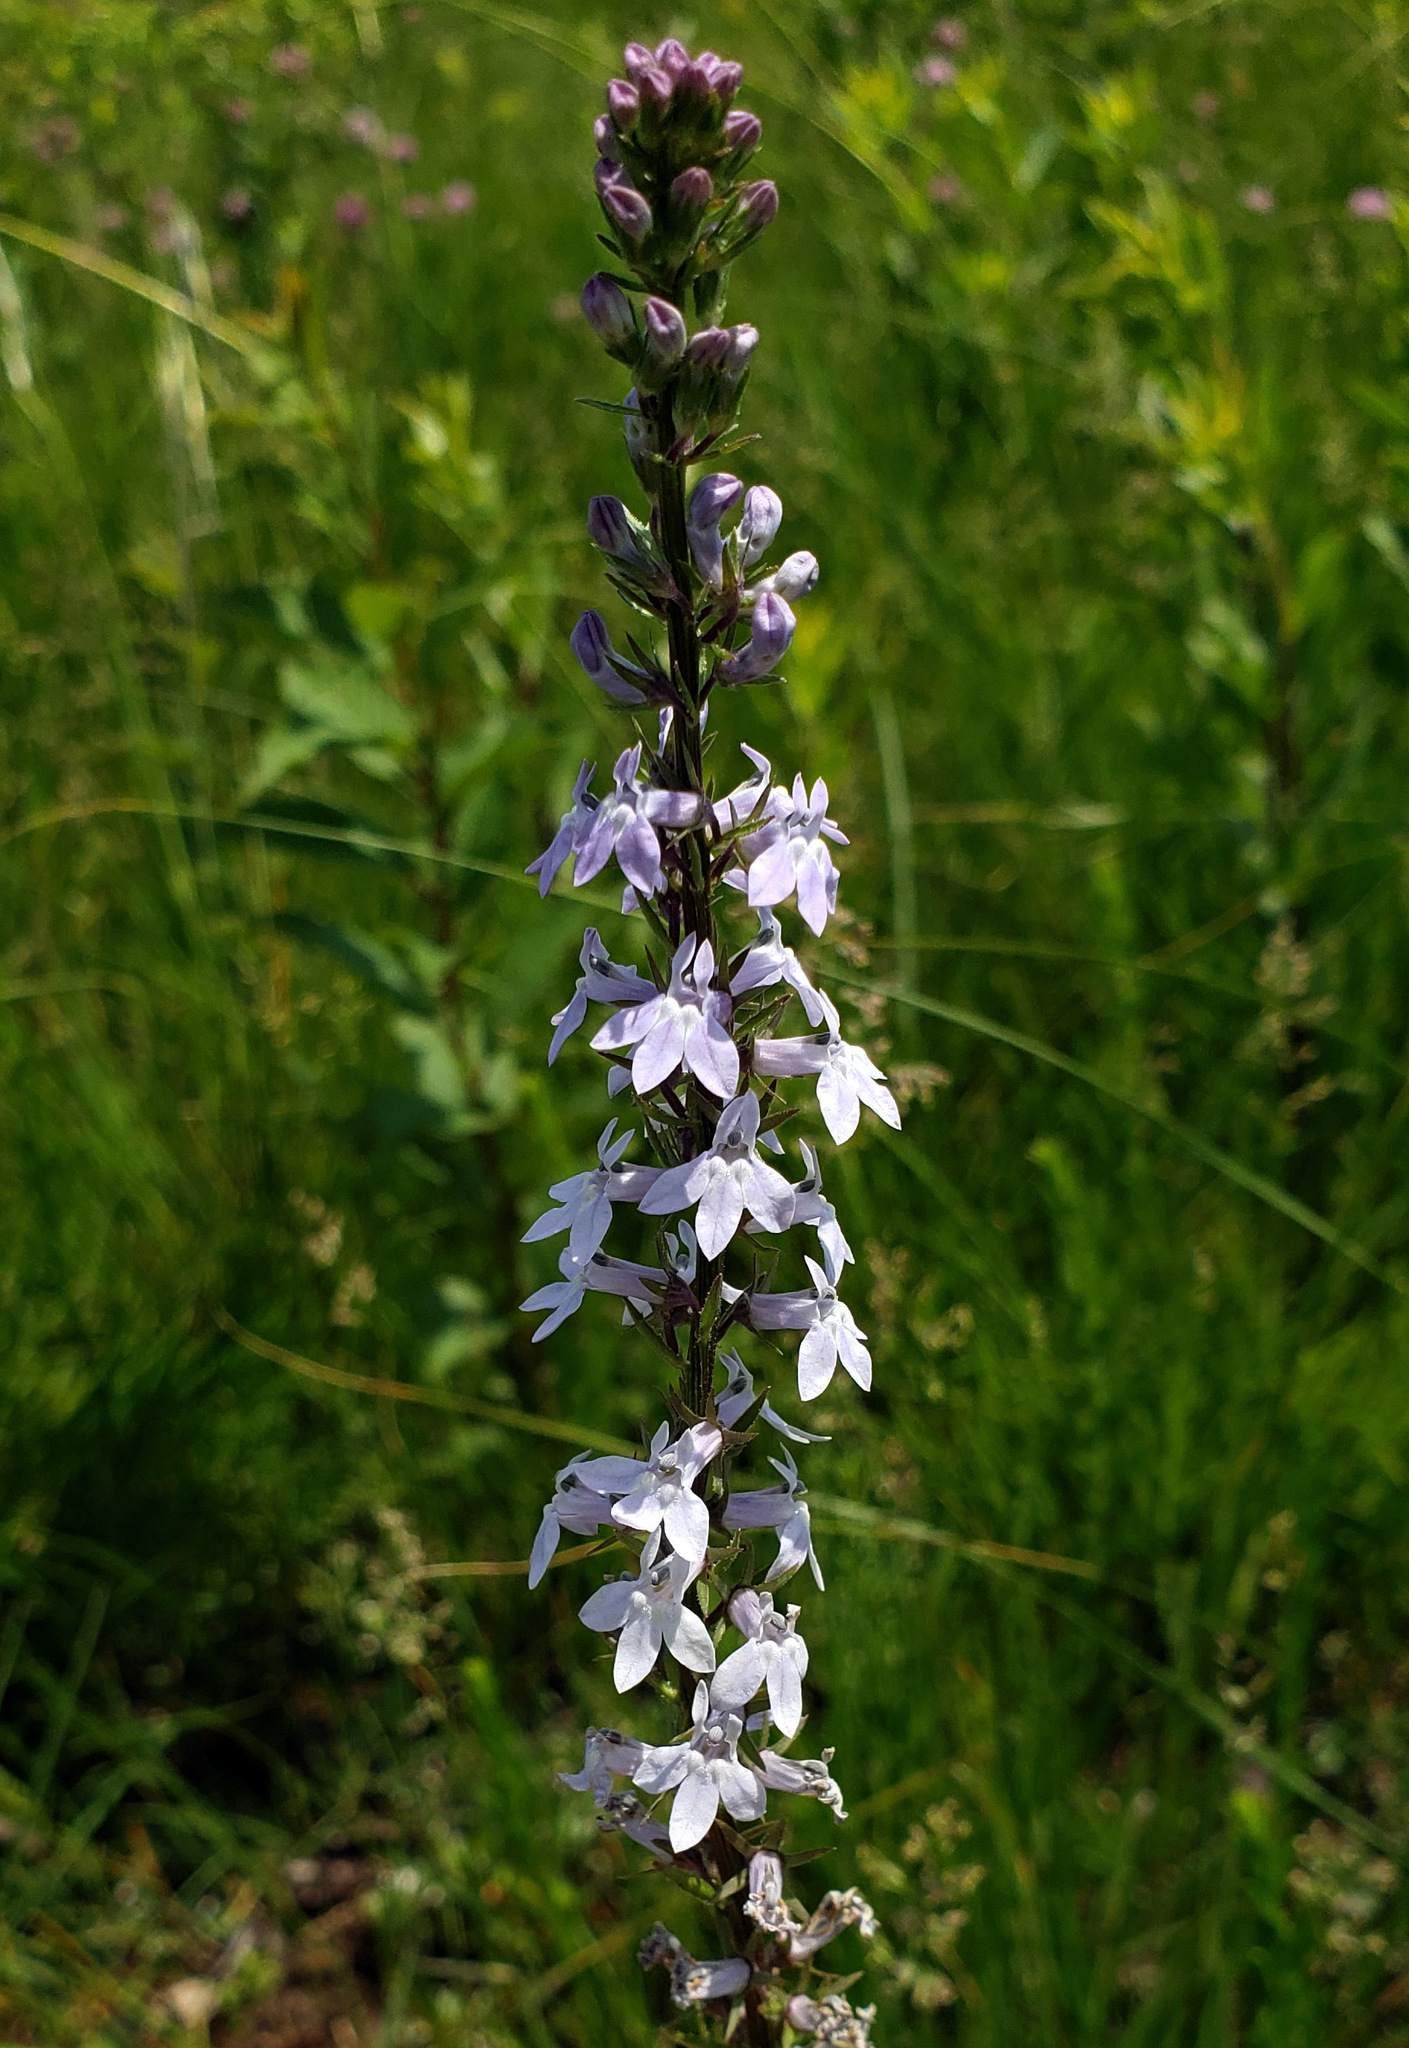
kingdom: Plantae
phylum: Tracheophyta
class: Magnoliopsida
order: Asterales
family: Campanulaceae
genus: Lobelia
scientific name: Lobelia spicata
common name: Pale-spike lobelia
